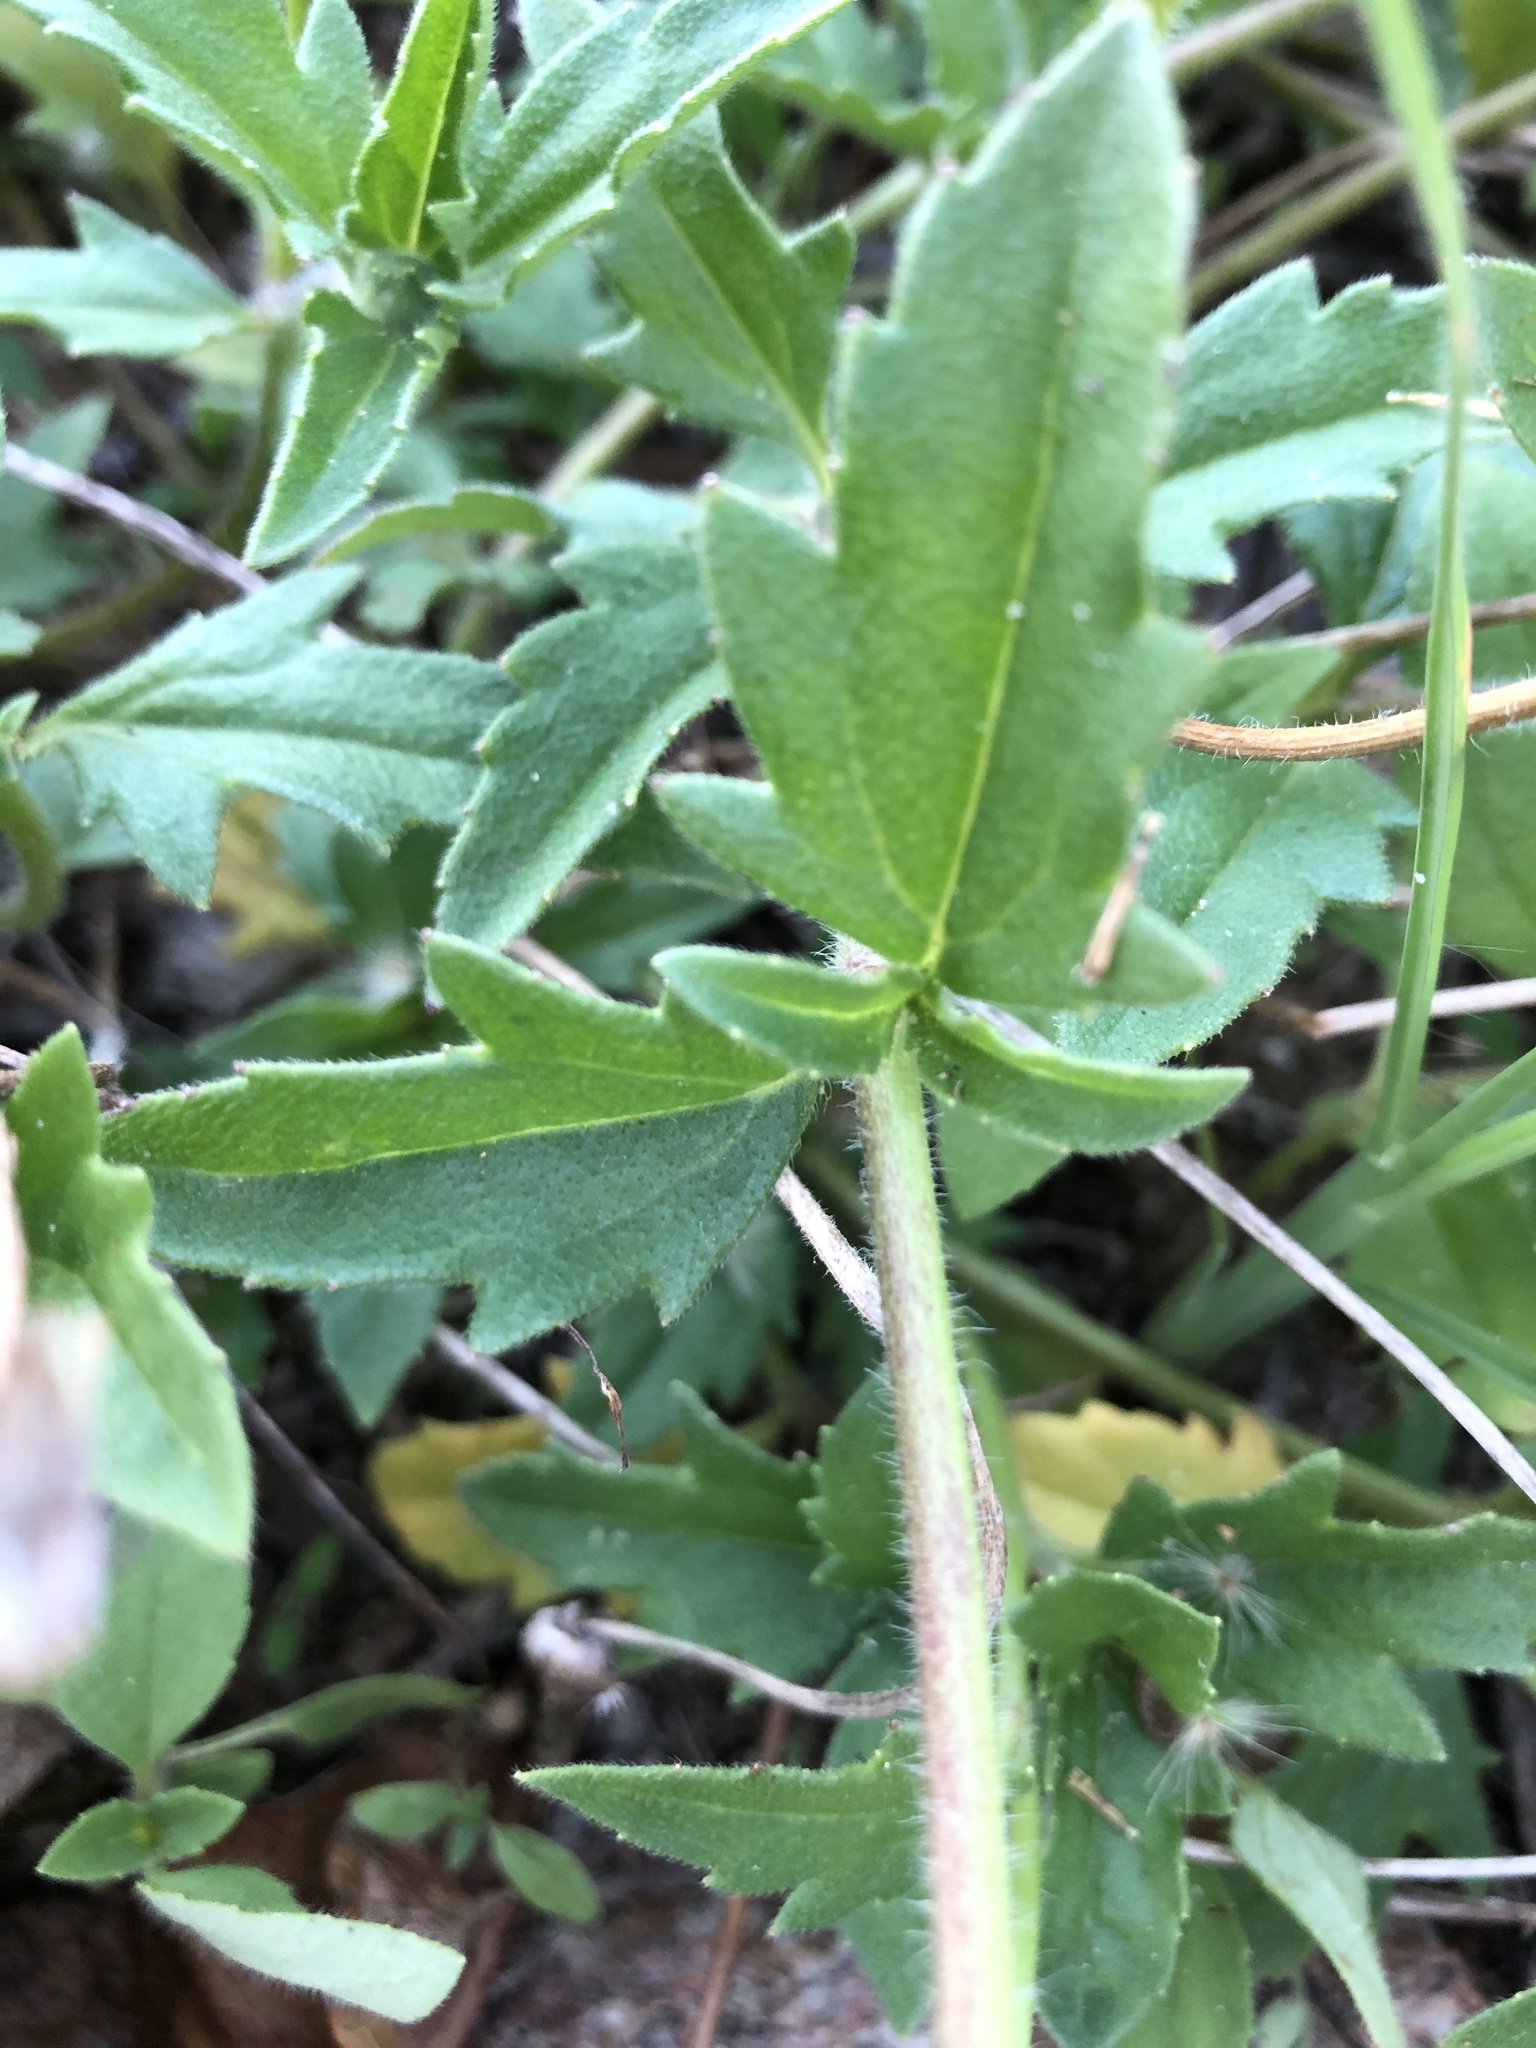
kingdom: Plantae
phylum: Tracheophyta
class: Magnoliopsida
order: Asterales
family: Asteraceae
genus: Tridax
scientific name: Tridax procumbens
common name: Coatbuttons
